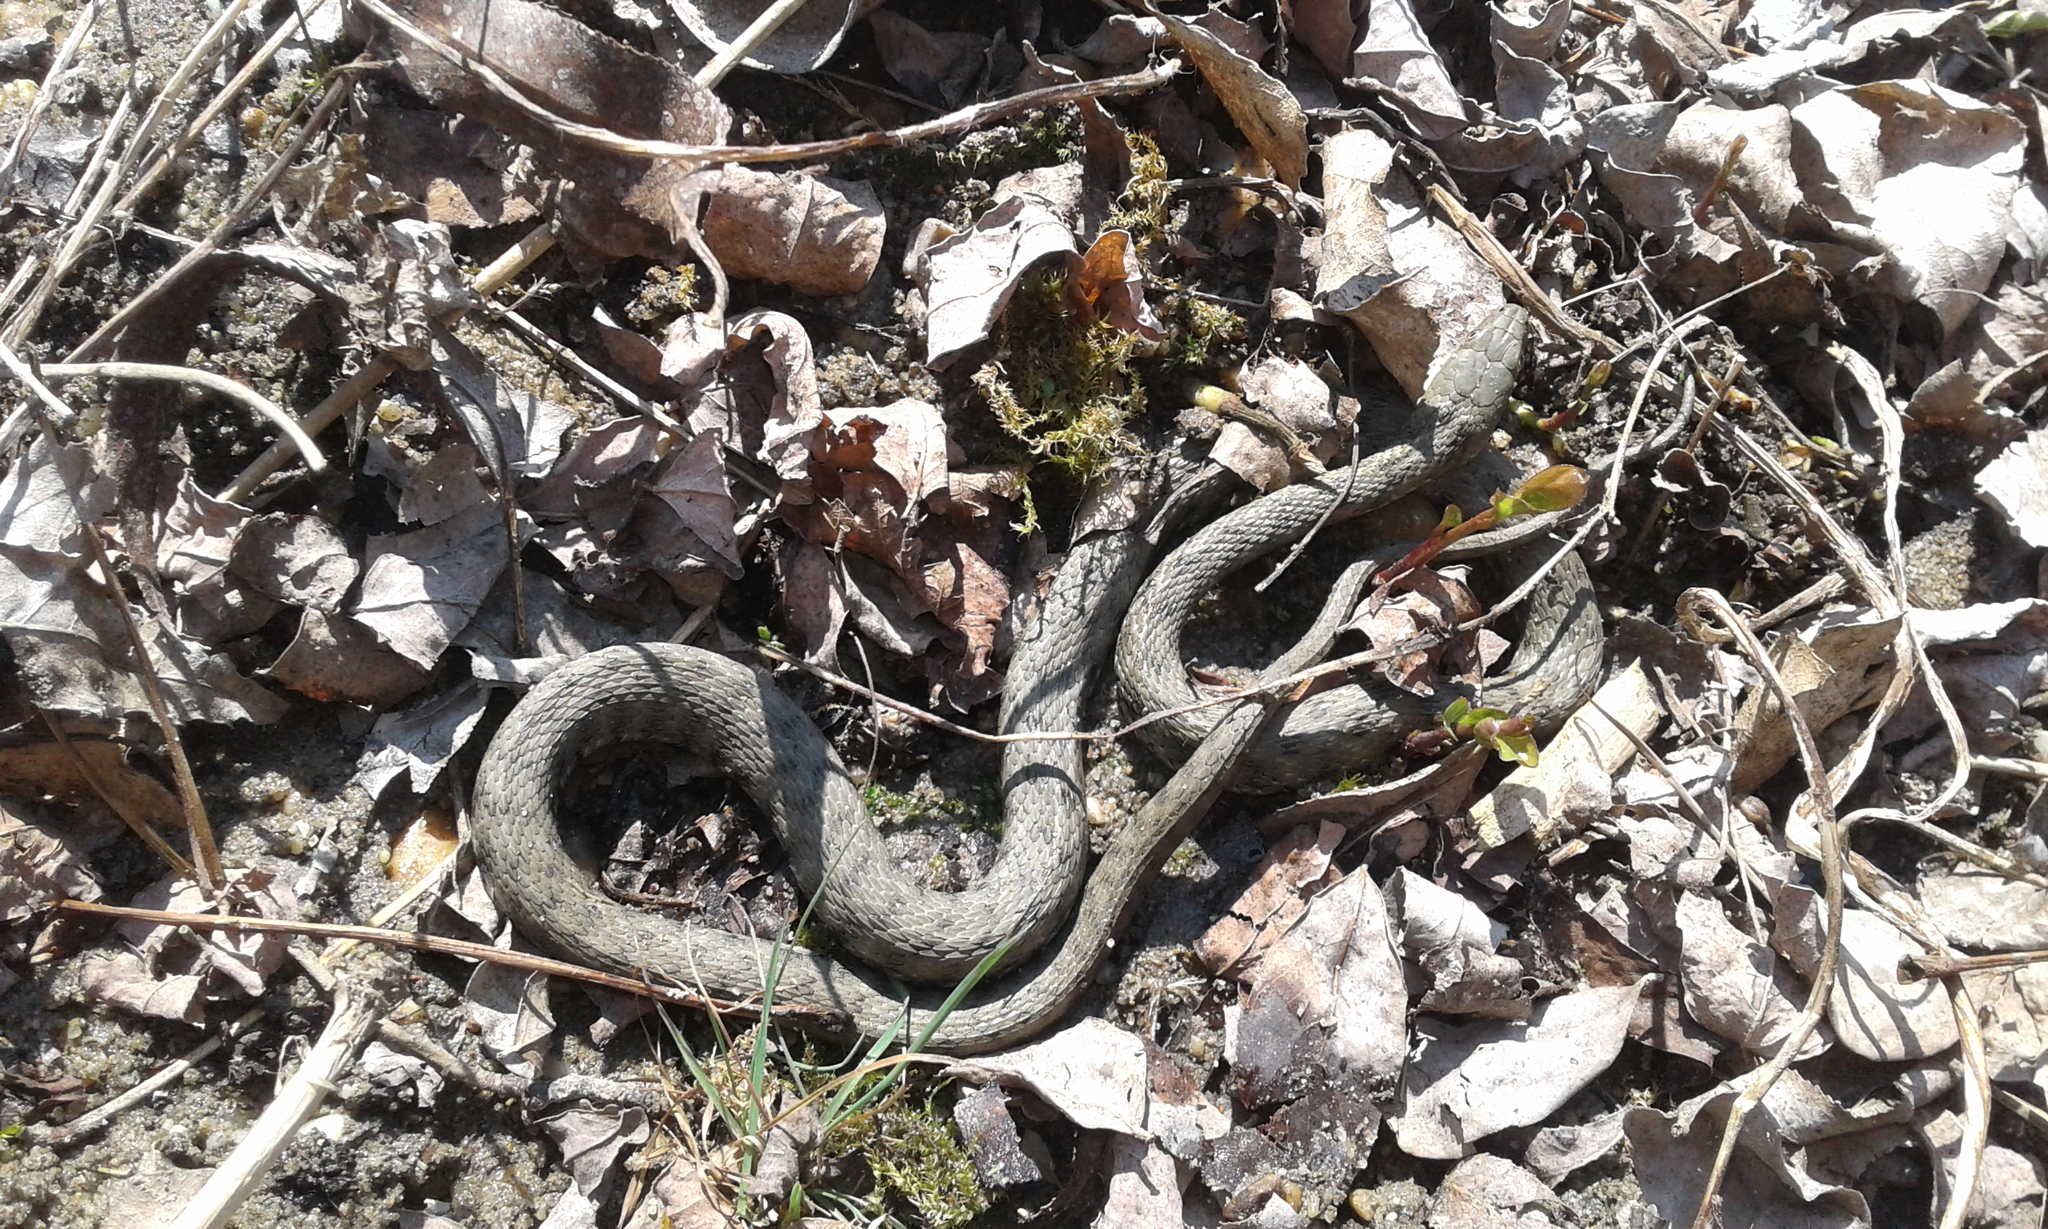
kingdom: Animalia
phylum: Chordata
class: Squamata
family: Colubridae
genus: Natrix
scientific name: Natrix tessellata
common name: Dice snake
